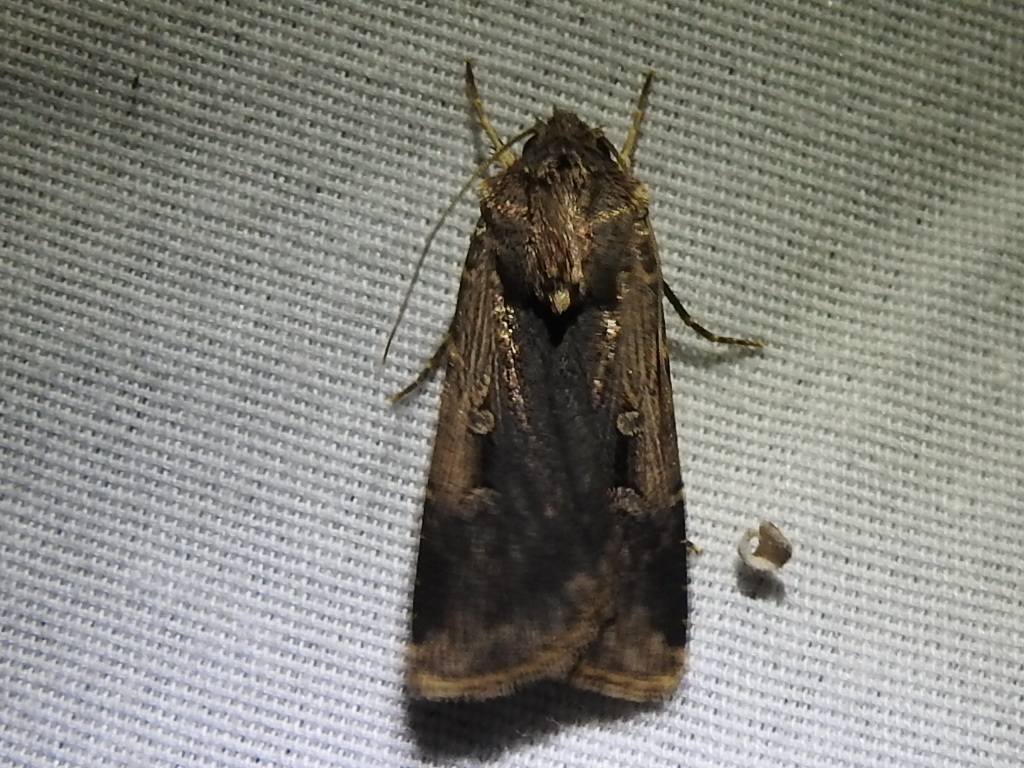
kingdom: Animalia
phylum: Arthropoda
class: Insecta
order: Lepidoptera
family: Noctuidae
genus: Feltia
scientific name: Feltia subterranea
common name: Granulate cutworm
